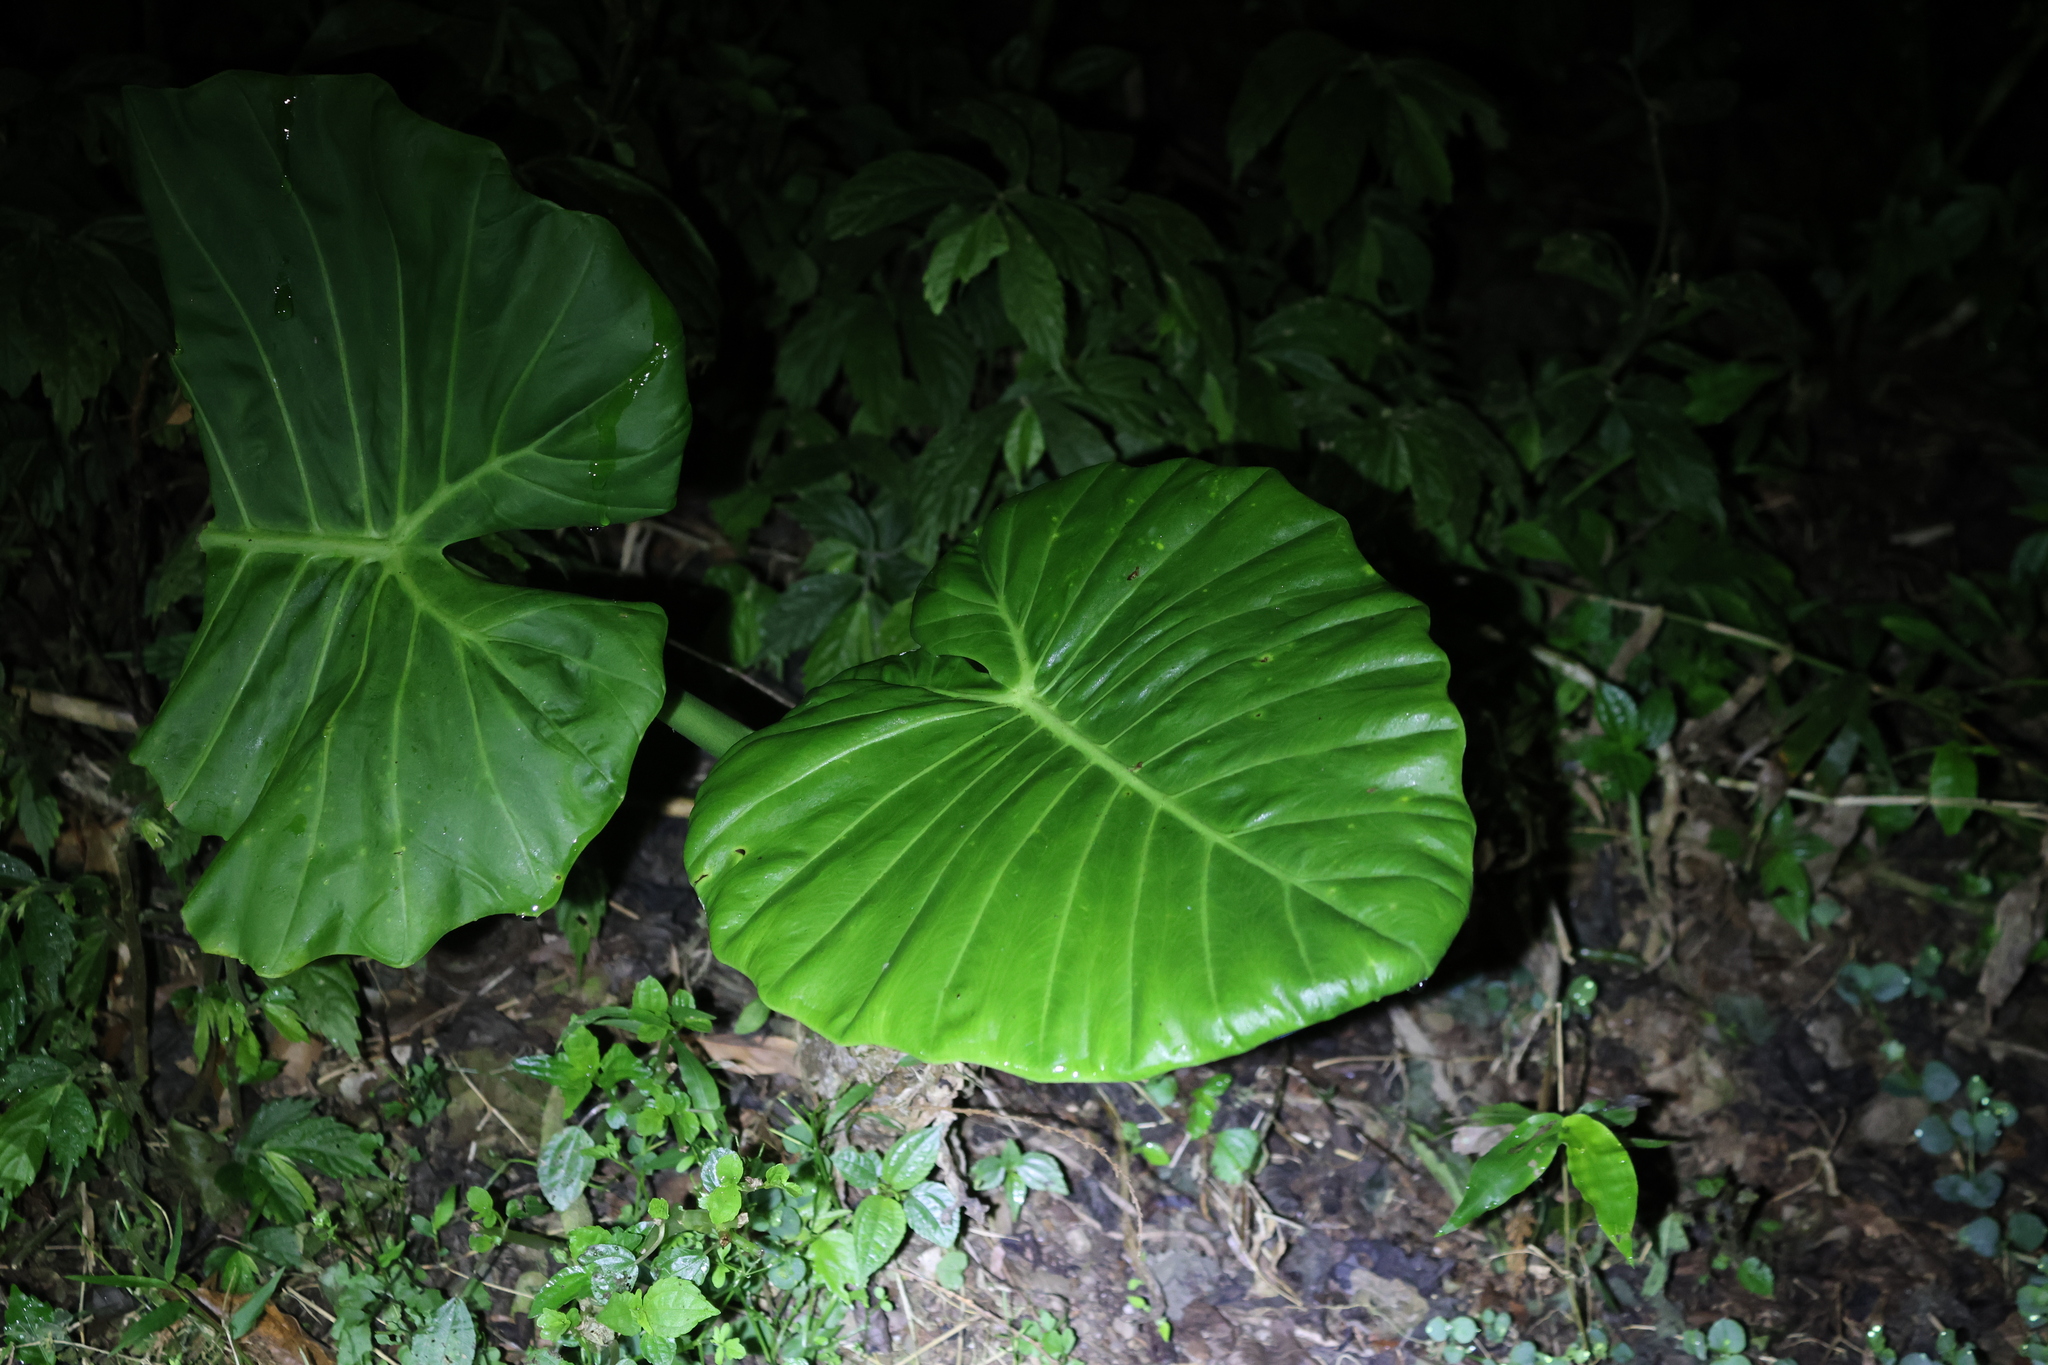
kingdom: Plantae
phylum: Tracheophyta
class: Liliopsida
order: Alismatales
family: Araceae
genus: Alocasia
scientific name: Alocasia odora
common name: Asian taro
